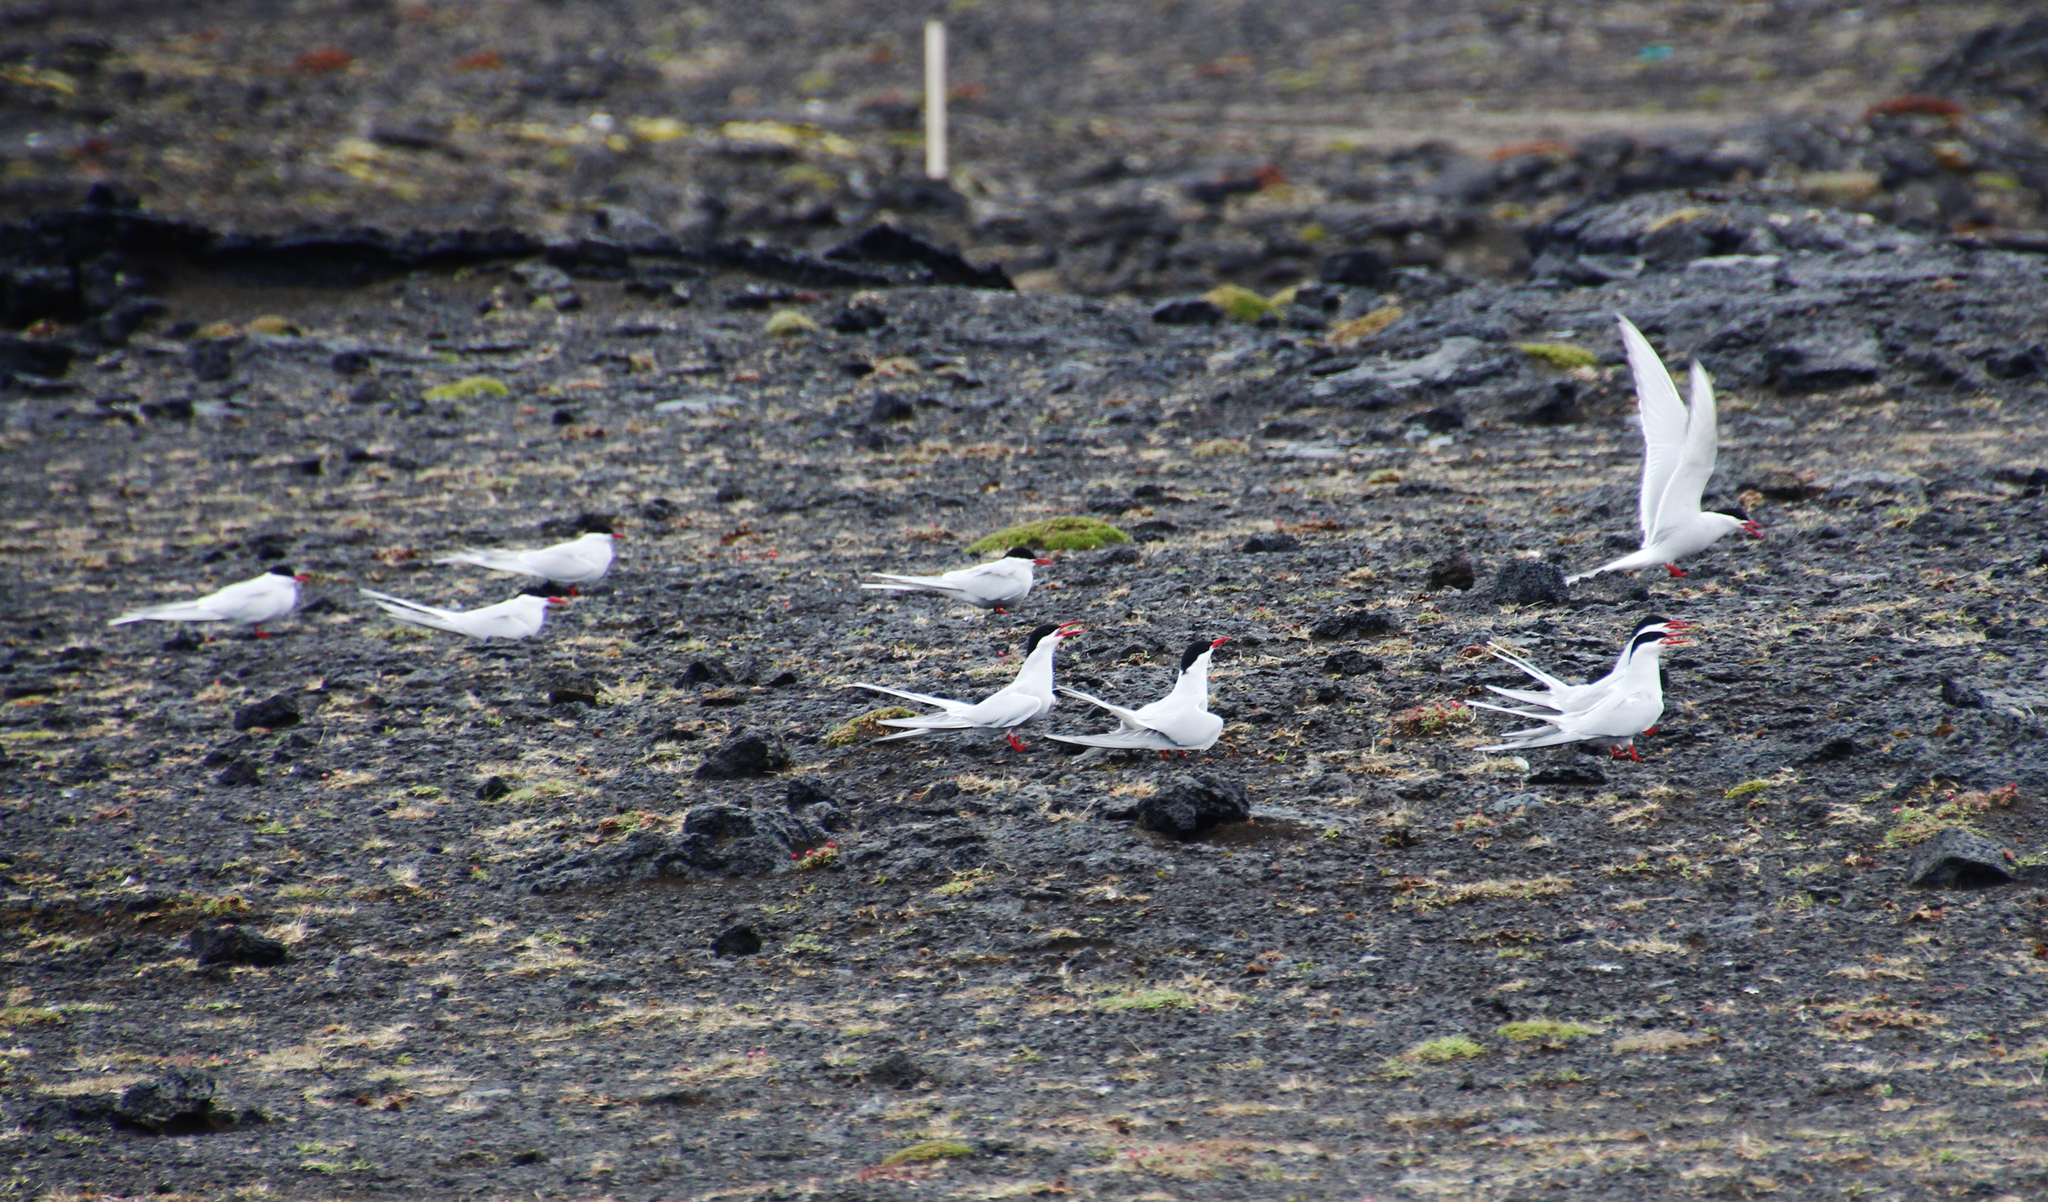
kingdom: Animalia
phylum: Chordata
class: Aves
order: Charadriiformes
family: Laridae
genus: Sterna
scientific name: Sterna paradisaea
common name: Arctic tern
